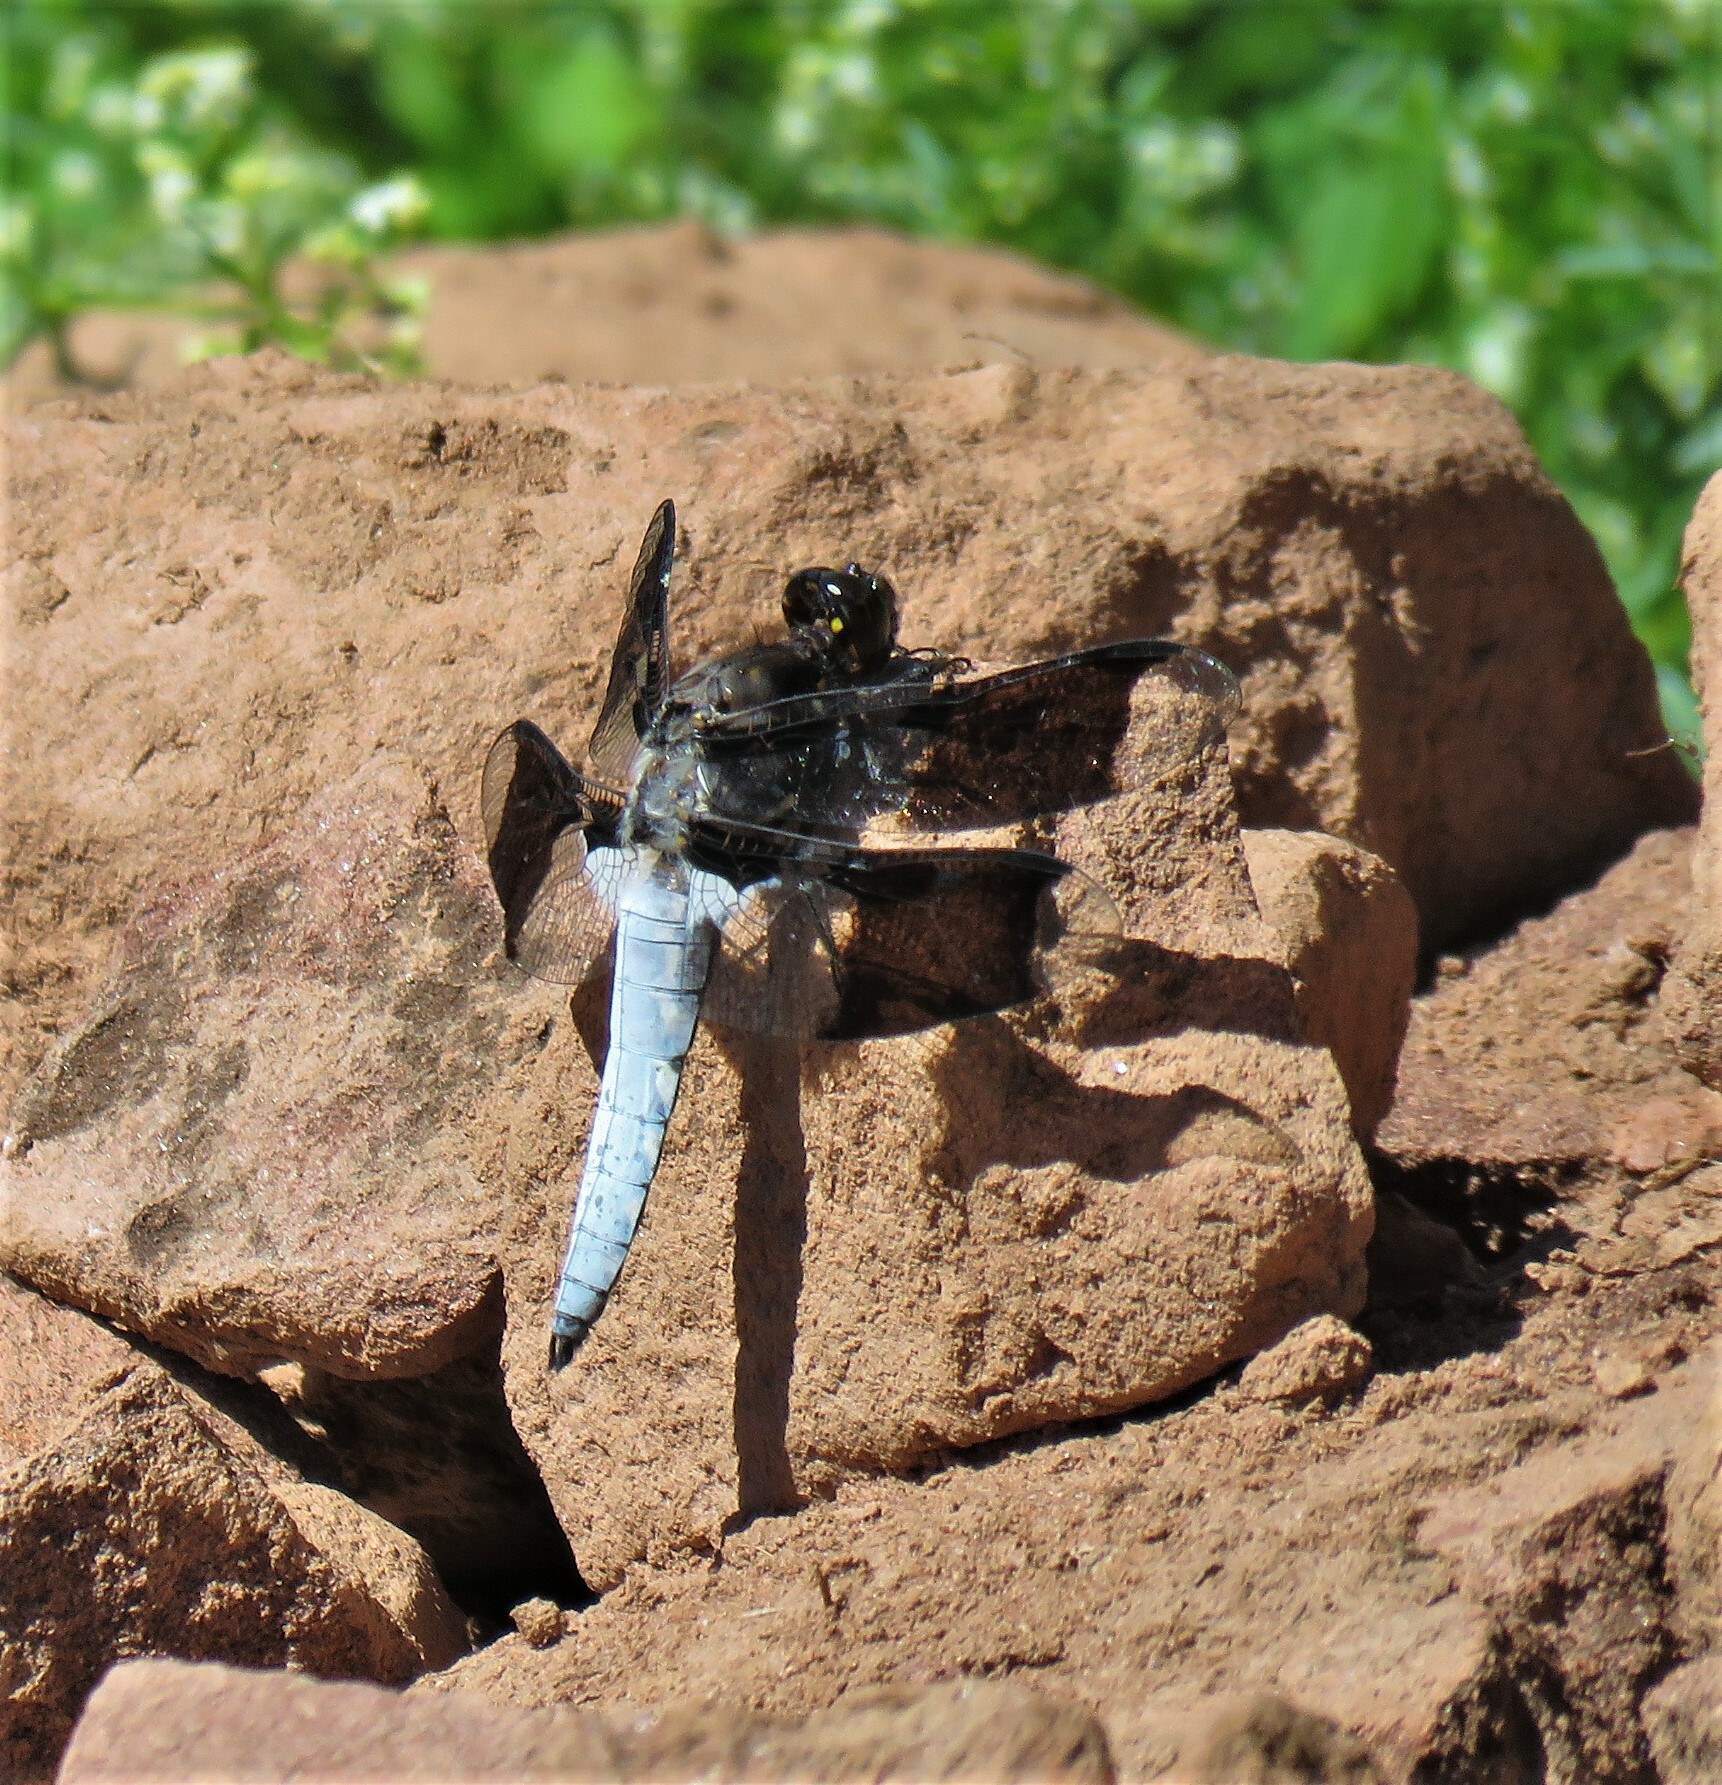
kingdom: Animalia
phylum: Arthropoda
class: Insecta
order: Odonata
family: Libellulidae
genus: Plathemis
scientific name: Plathemis lydia
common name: Common whitetail
